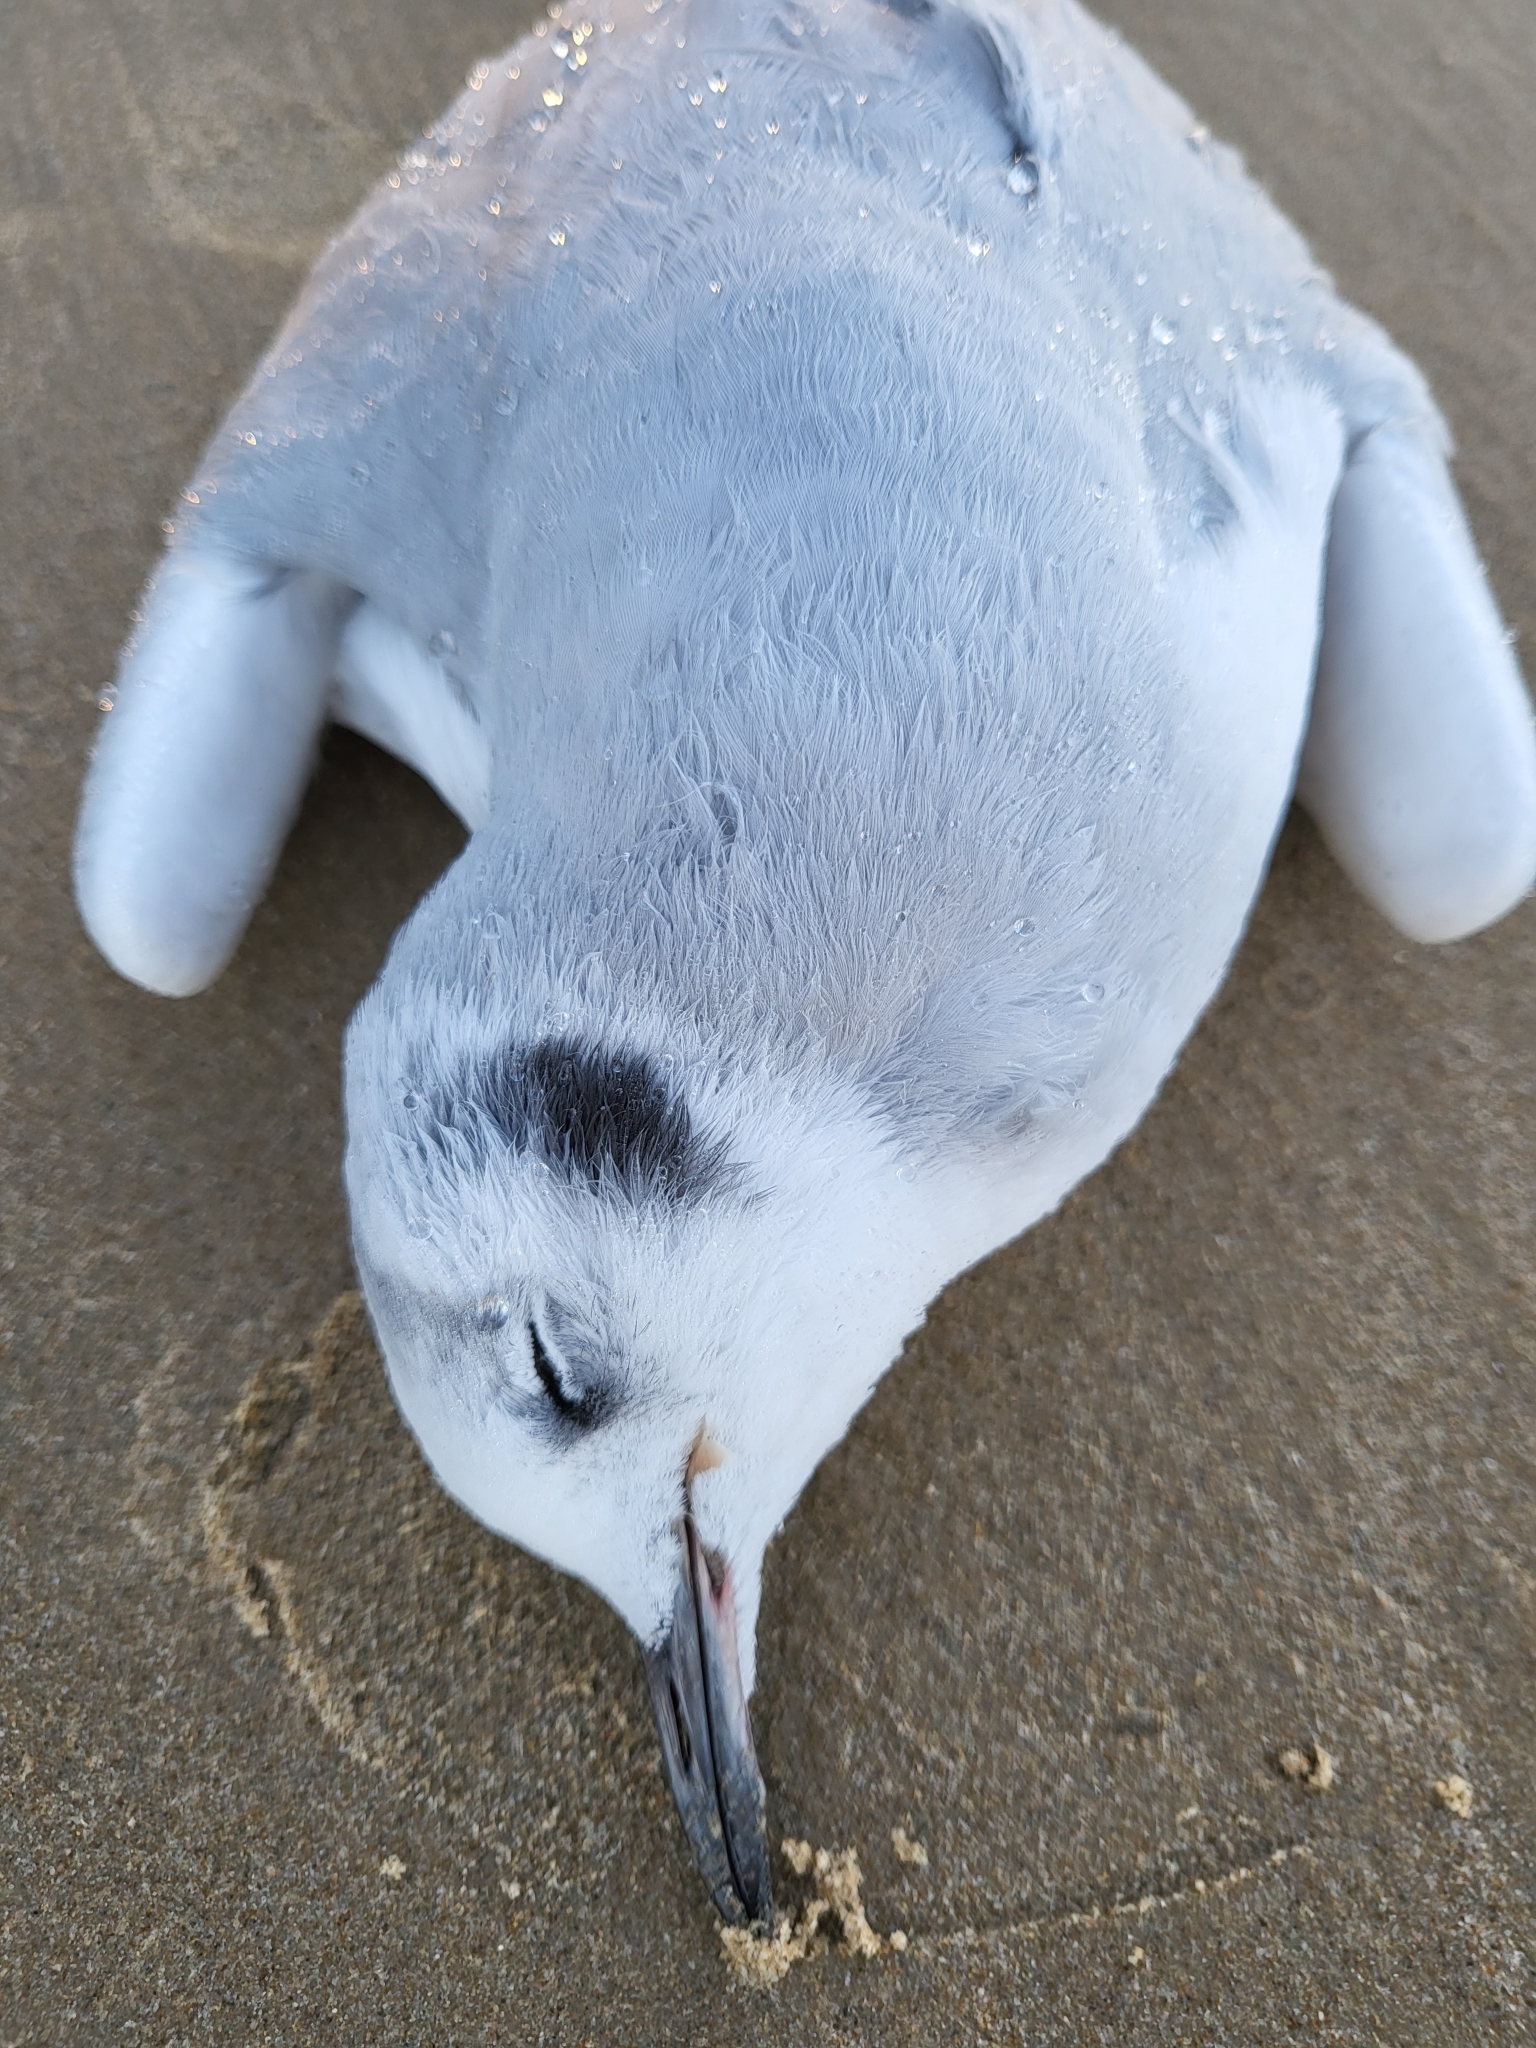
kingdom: Animalia
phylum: Chordata
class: Aves
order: Charadriiformes
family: Laridae
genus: Chroicocephalus
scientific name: Chroicocephalus philadelphia
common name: Bonaparte's gull
